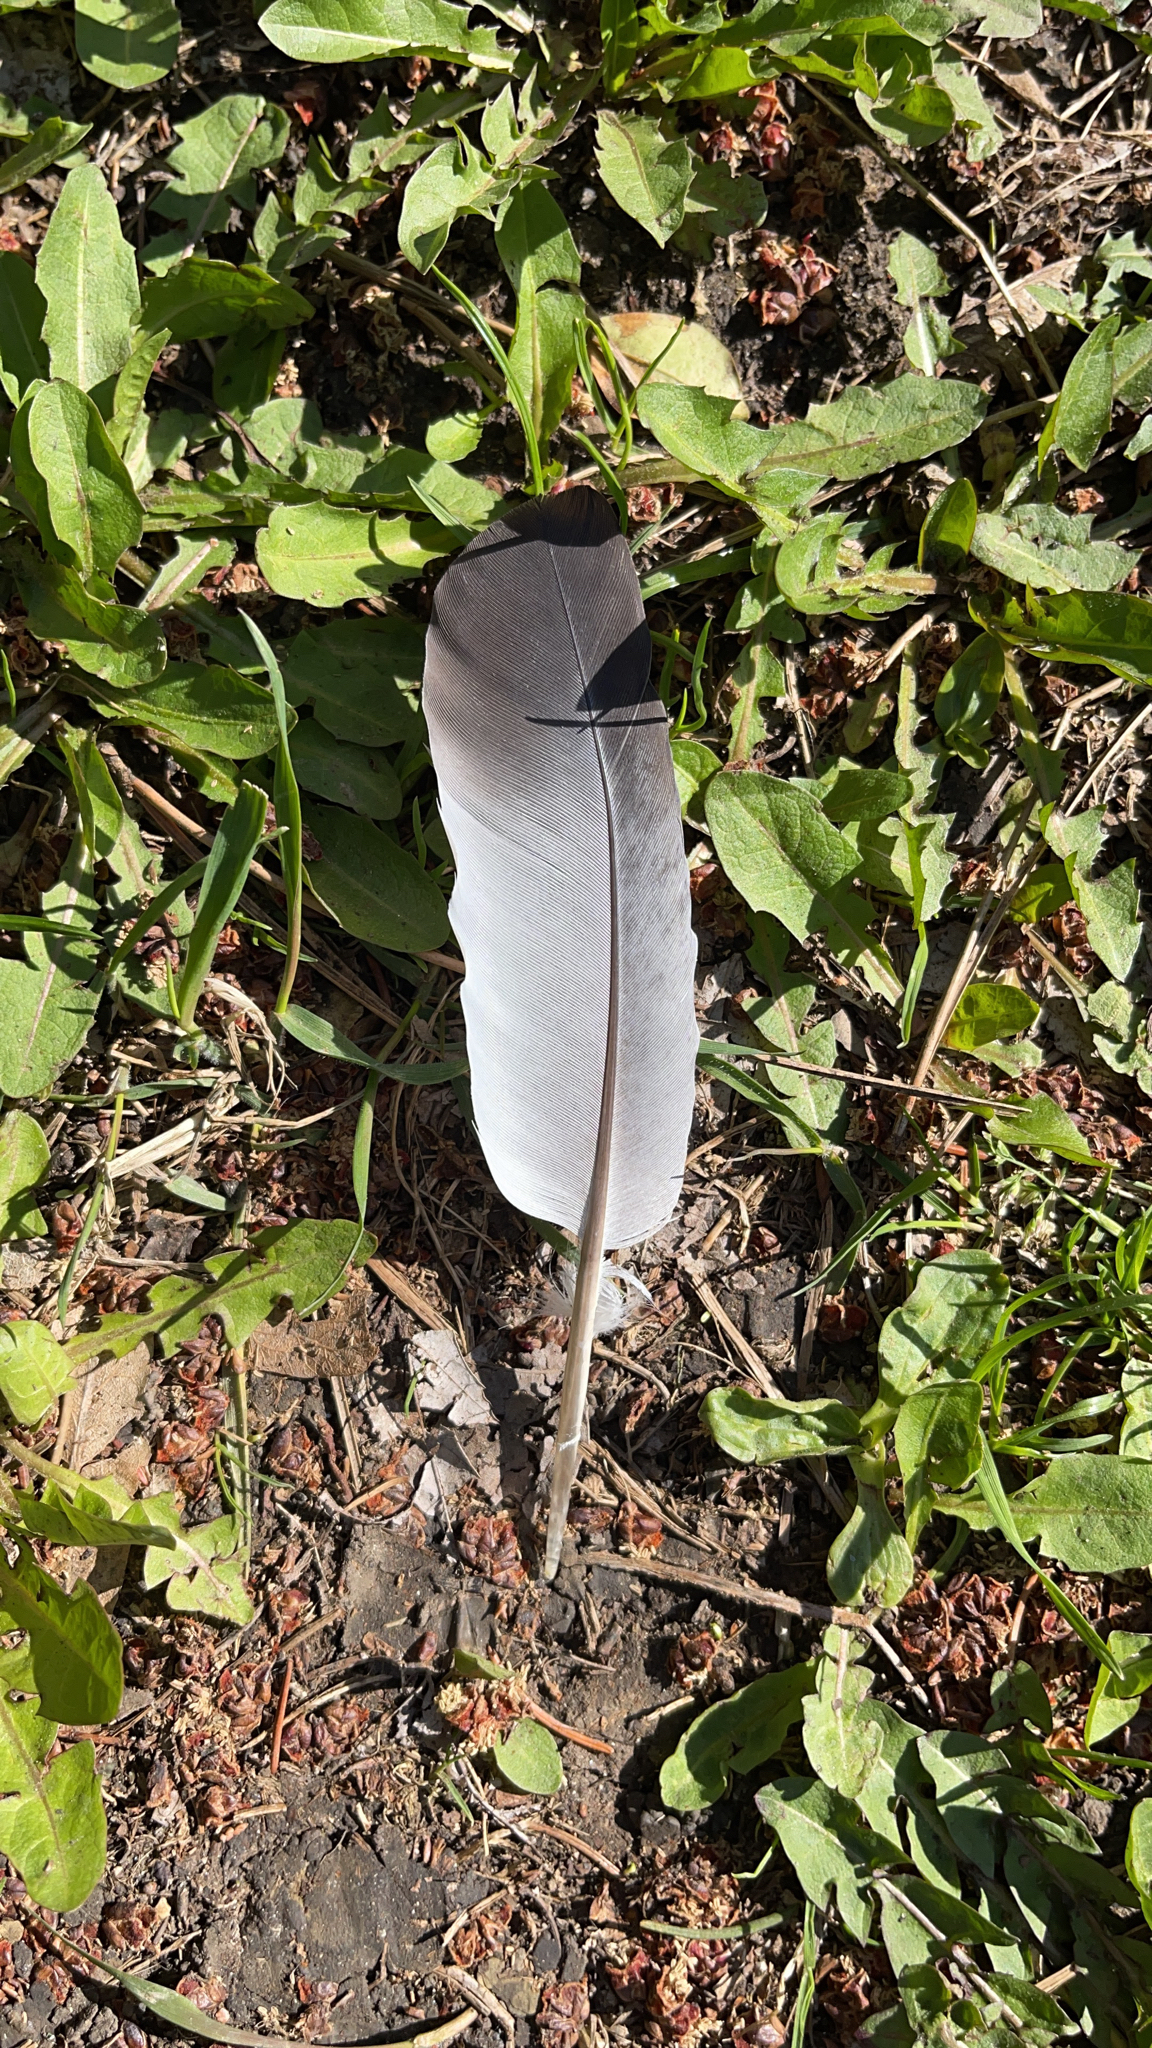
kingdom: Animalia
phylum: Chordata
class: Aves
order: Columbiformes
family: Columbidae
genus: Columba
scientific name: Columba livia
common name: Rock pigeon
